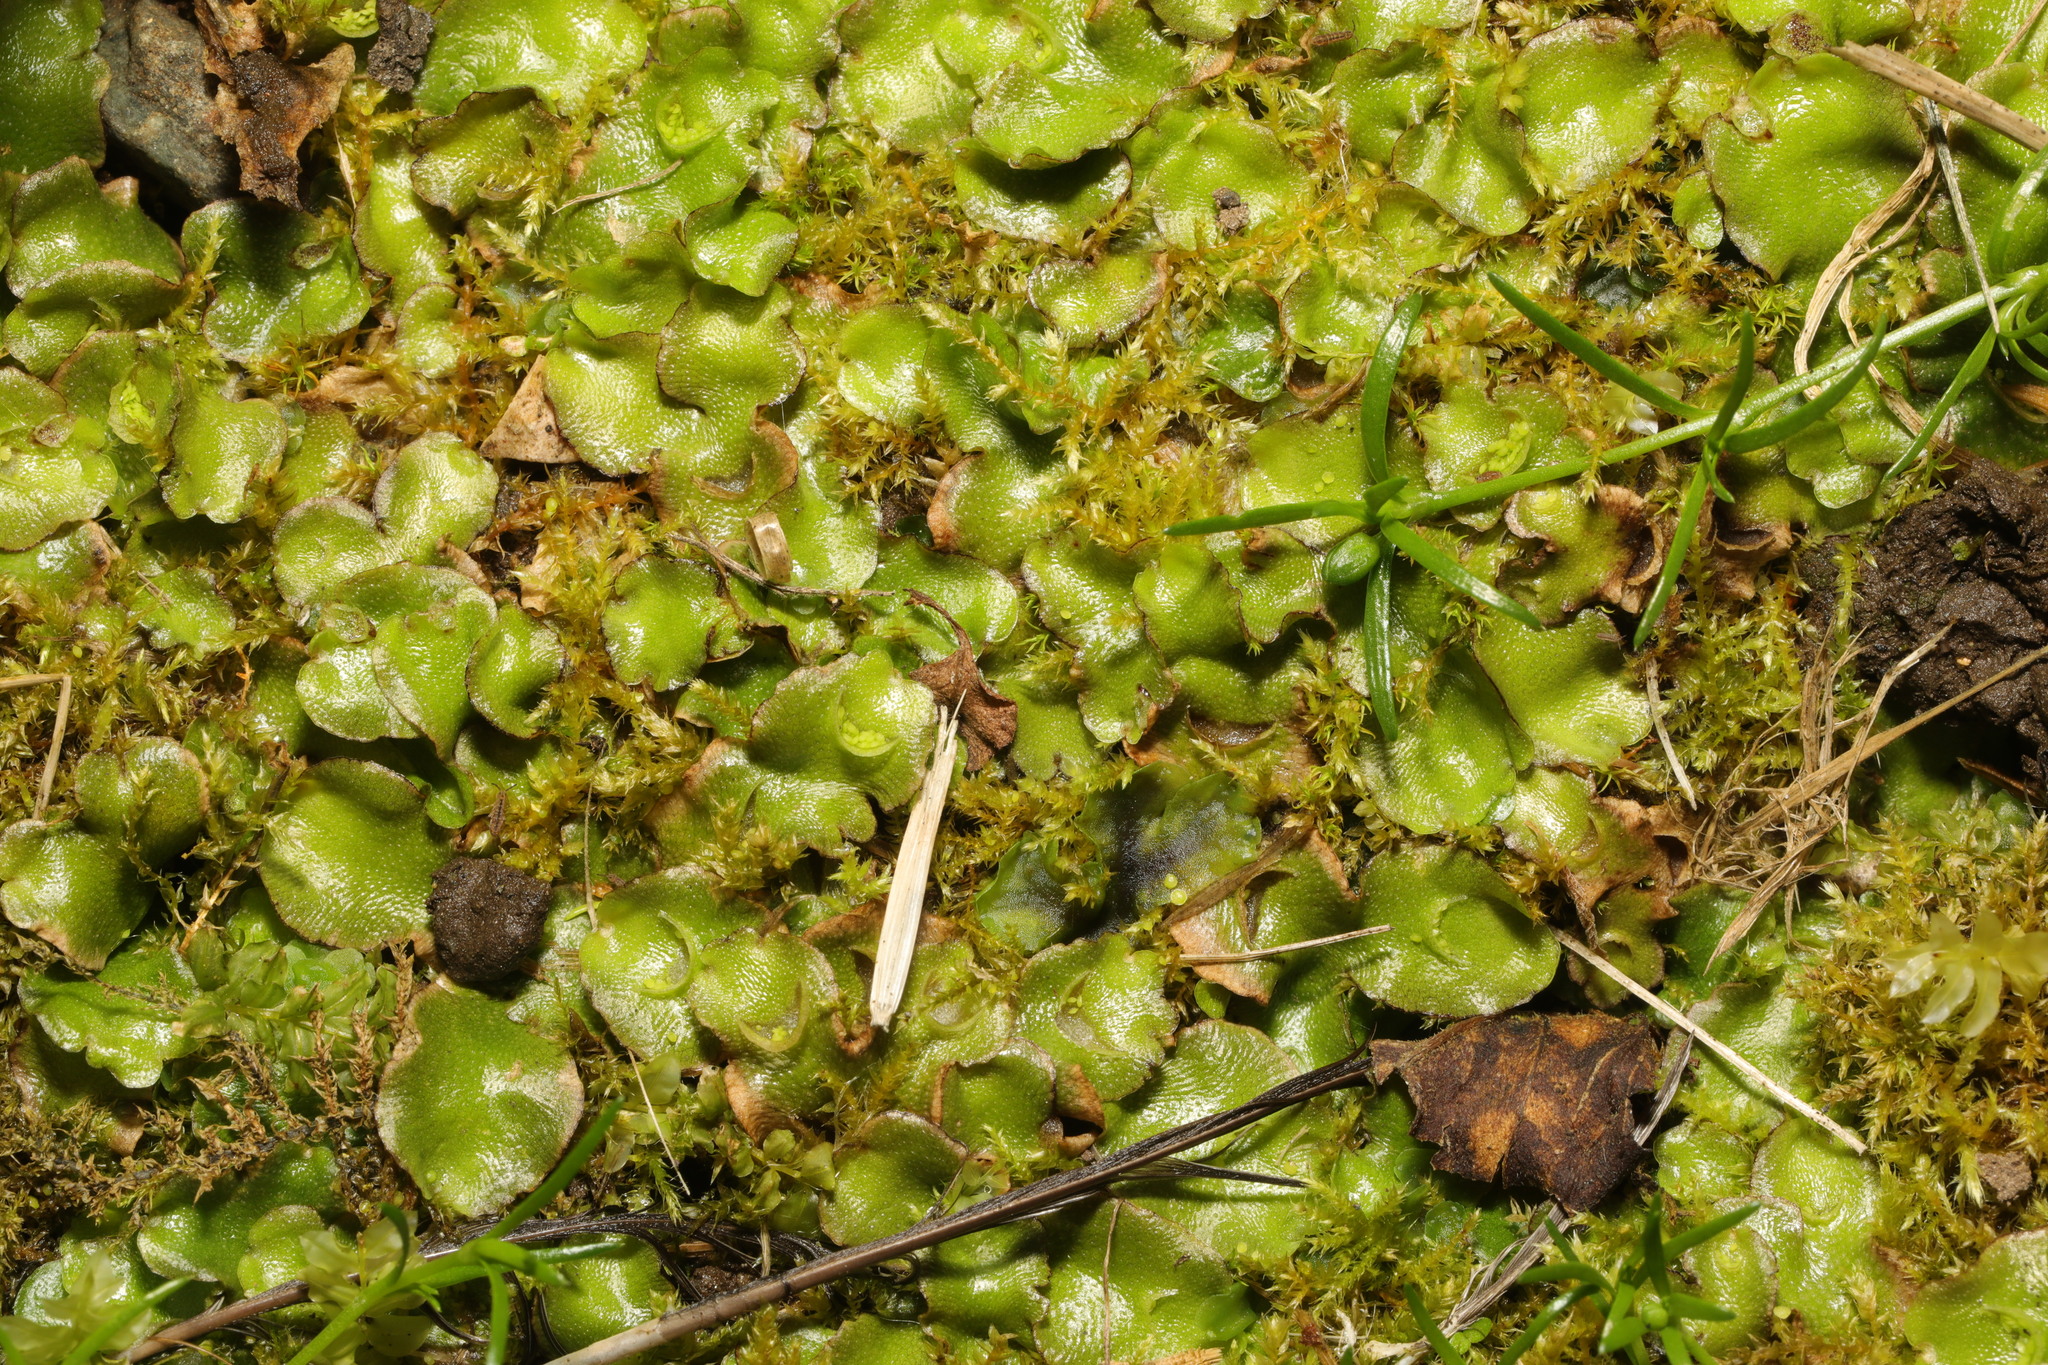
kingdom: Plantae
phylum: Marchantiophyta
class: Marchantiopsida
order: Lunulariales
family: Lunulariaceae
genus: Lunularia
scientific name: Lunularia cruciata
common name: Crescent-cup liverwort
